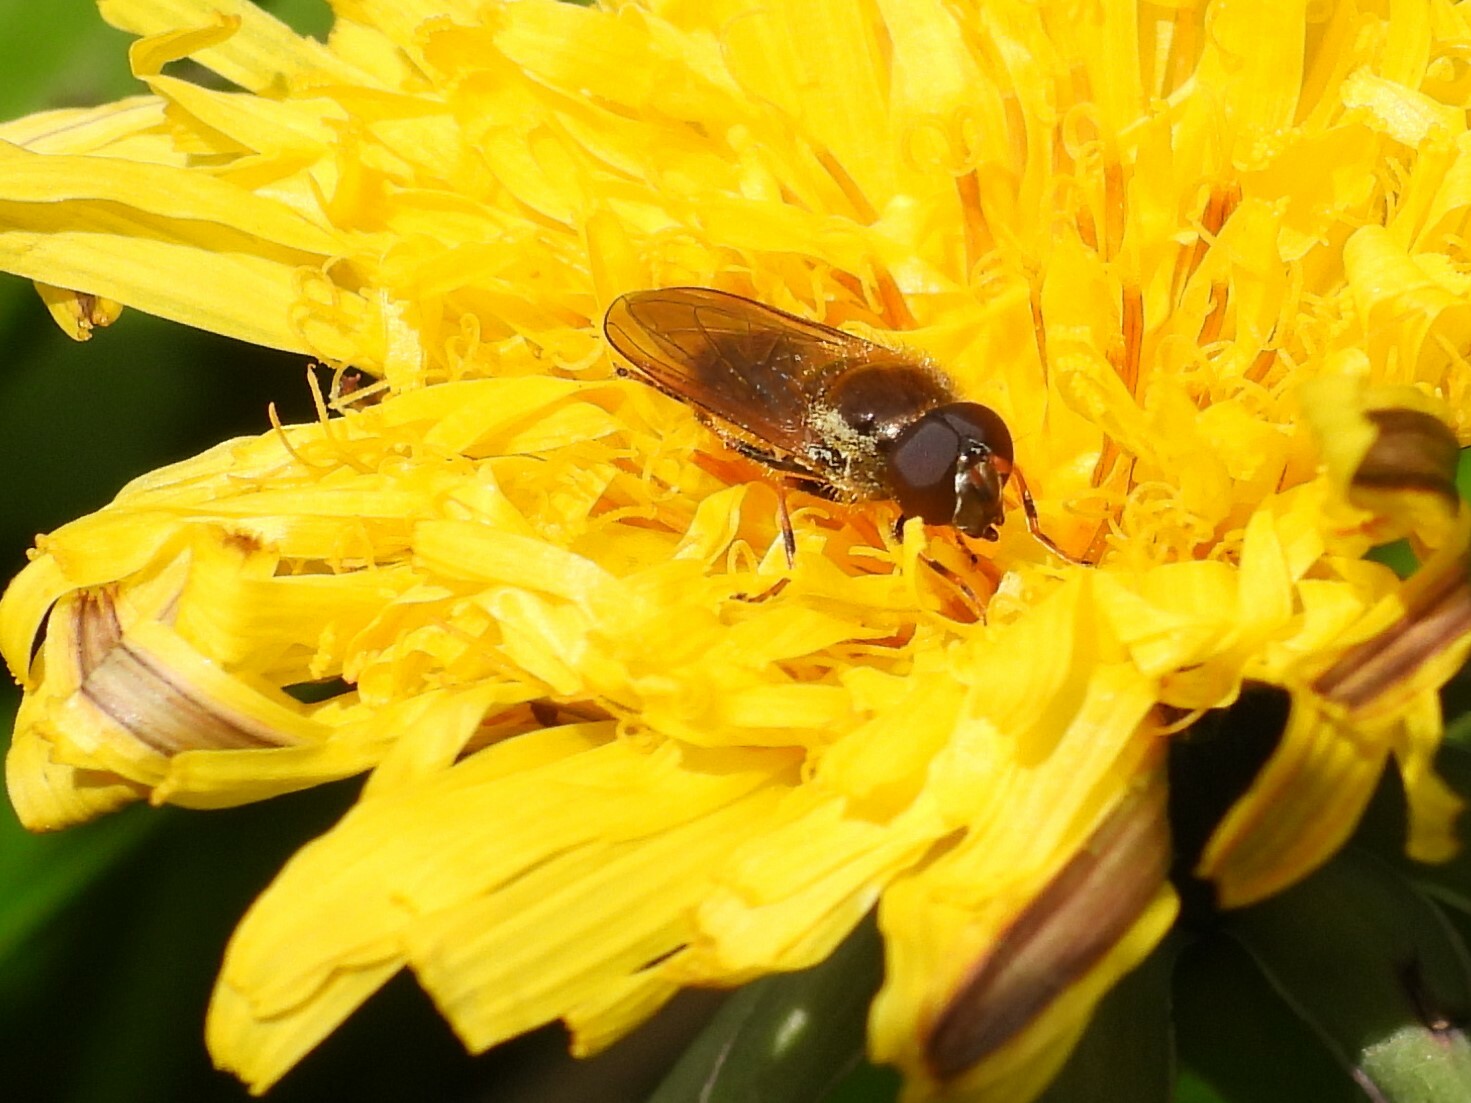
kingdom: Animalia
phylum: Arthropoda
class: Insecta
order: Diptera
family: Syrphidae
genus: Cheilosia
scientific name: Cheilosia pagana
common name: Hover fly
